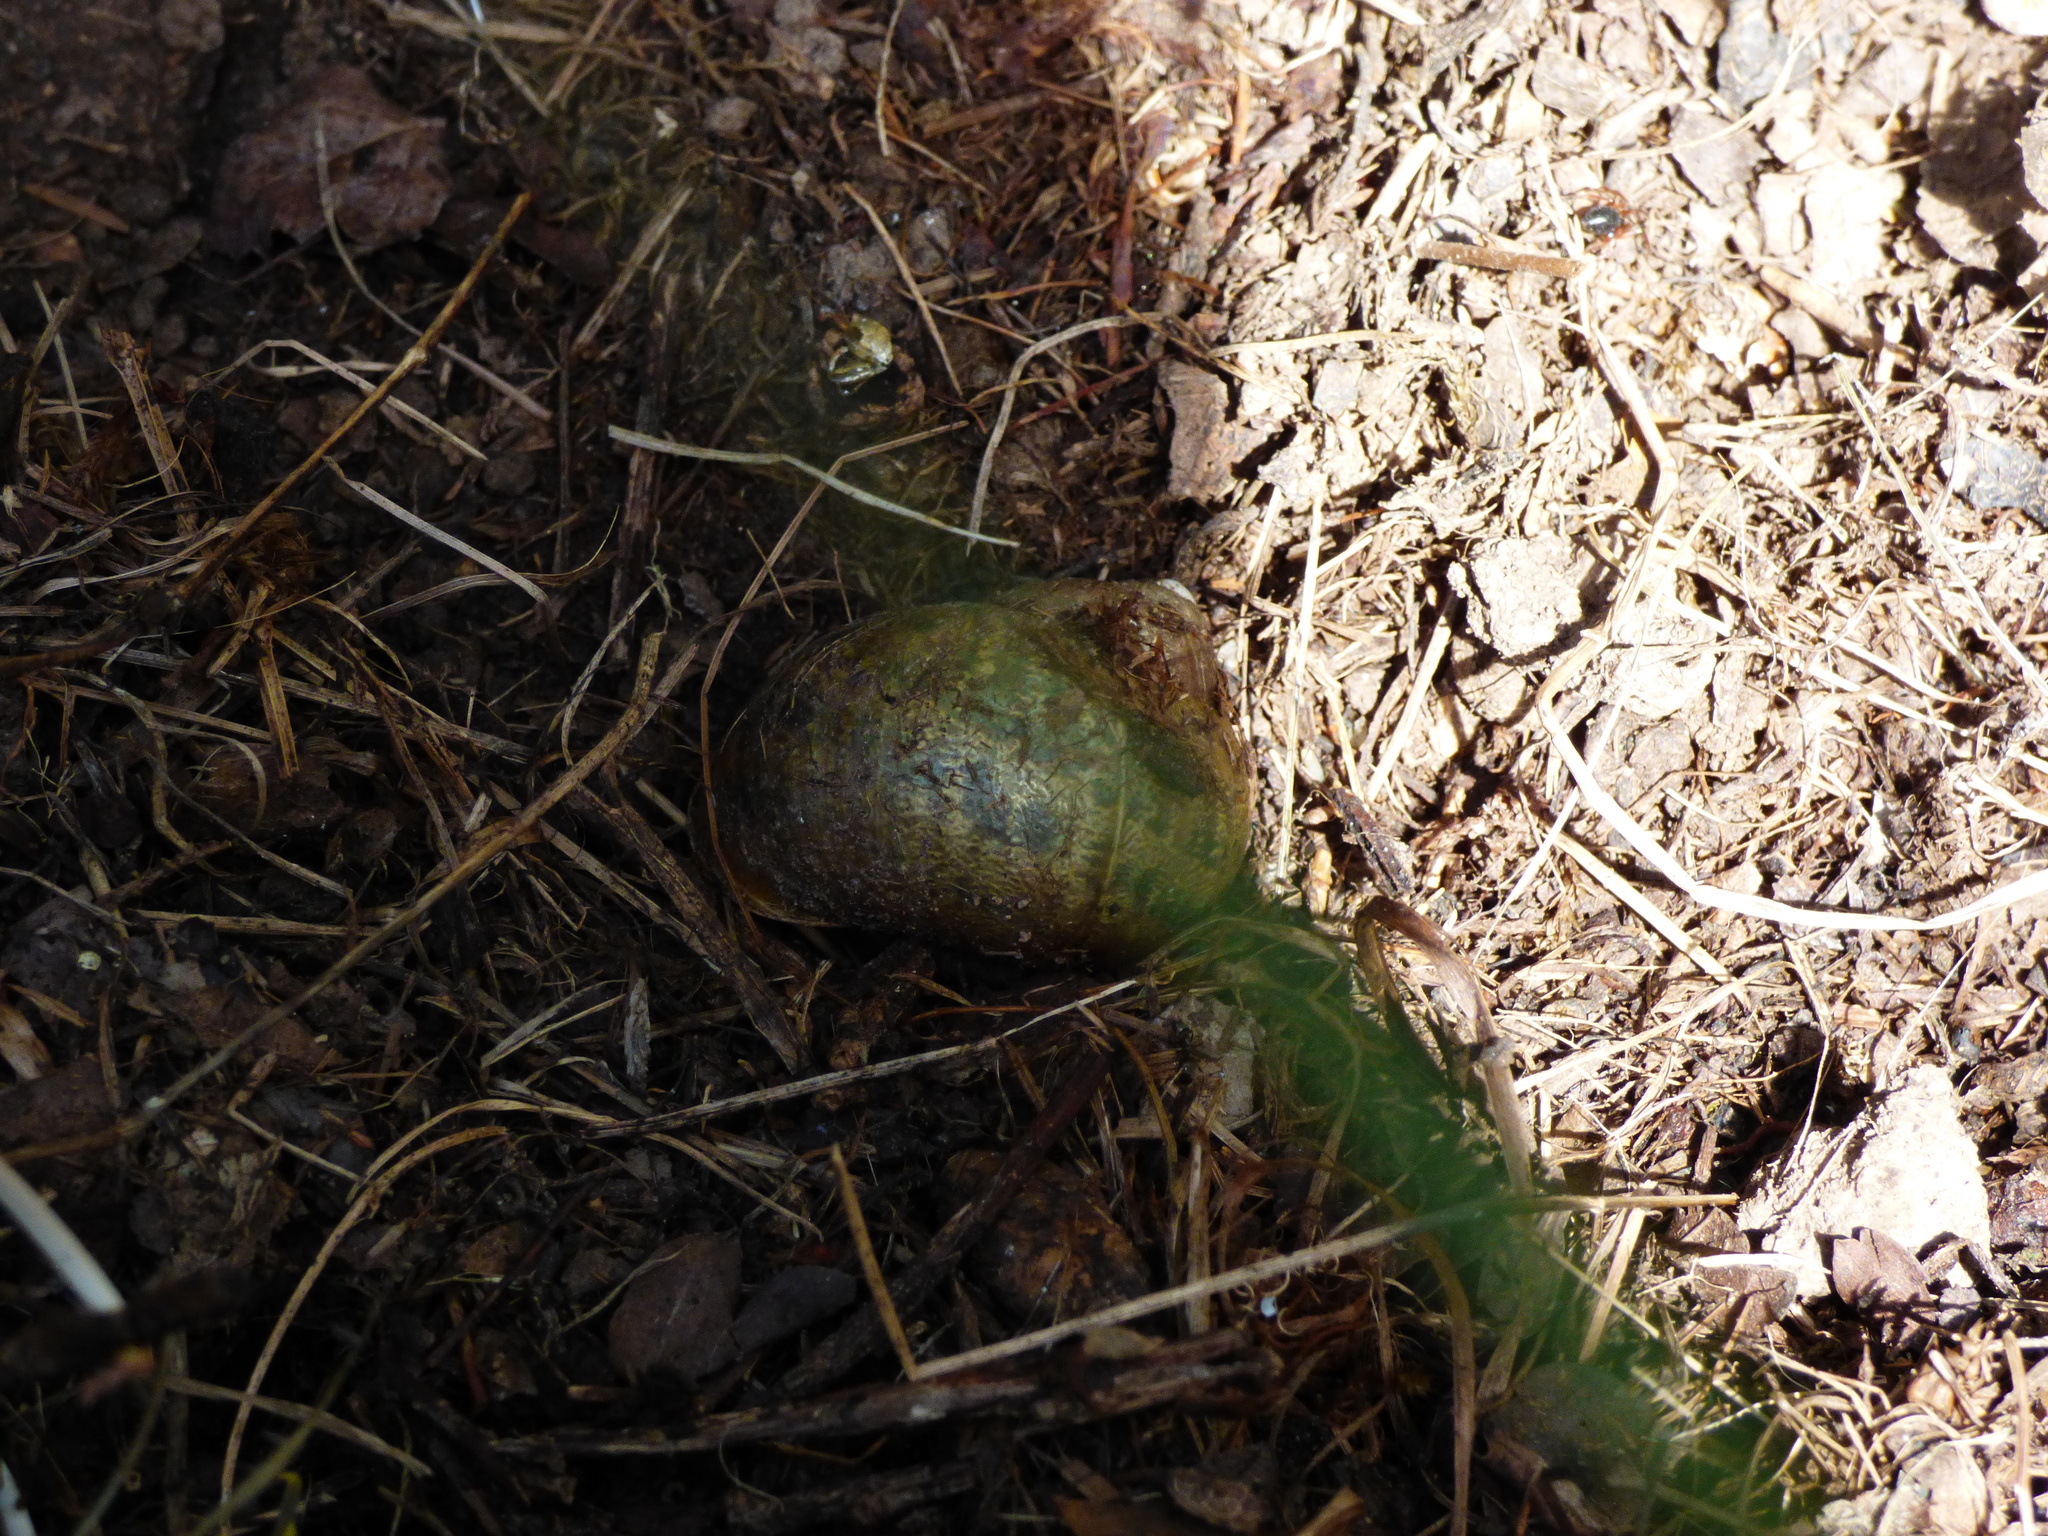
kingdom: Animalia
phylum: Mollusca
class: Gastropoda
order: Stylommatophora
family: Helicidae
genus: Cornu
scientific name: Cornu aspersum
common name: Brown garden snail
